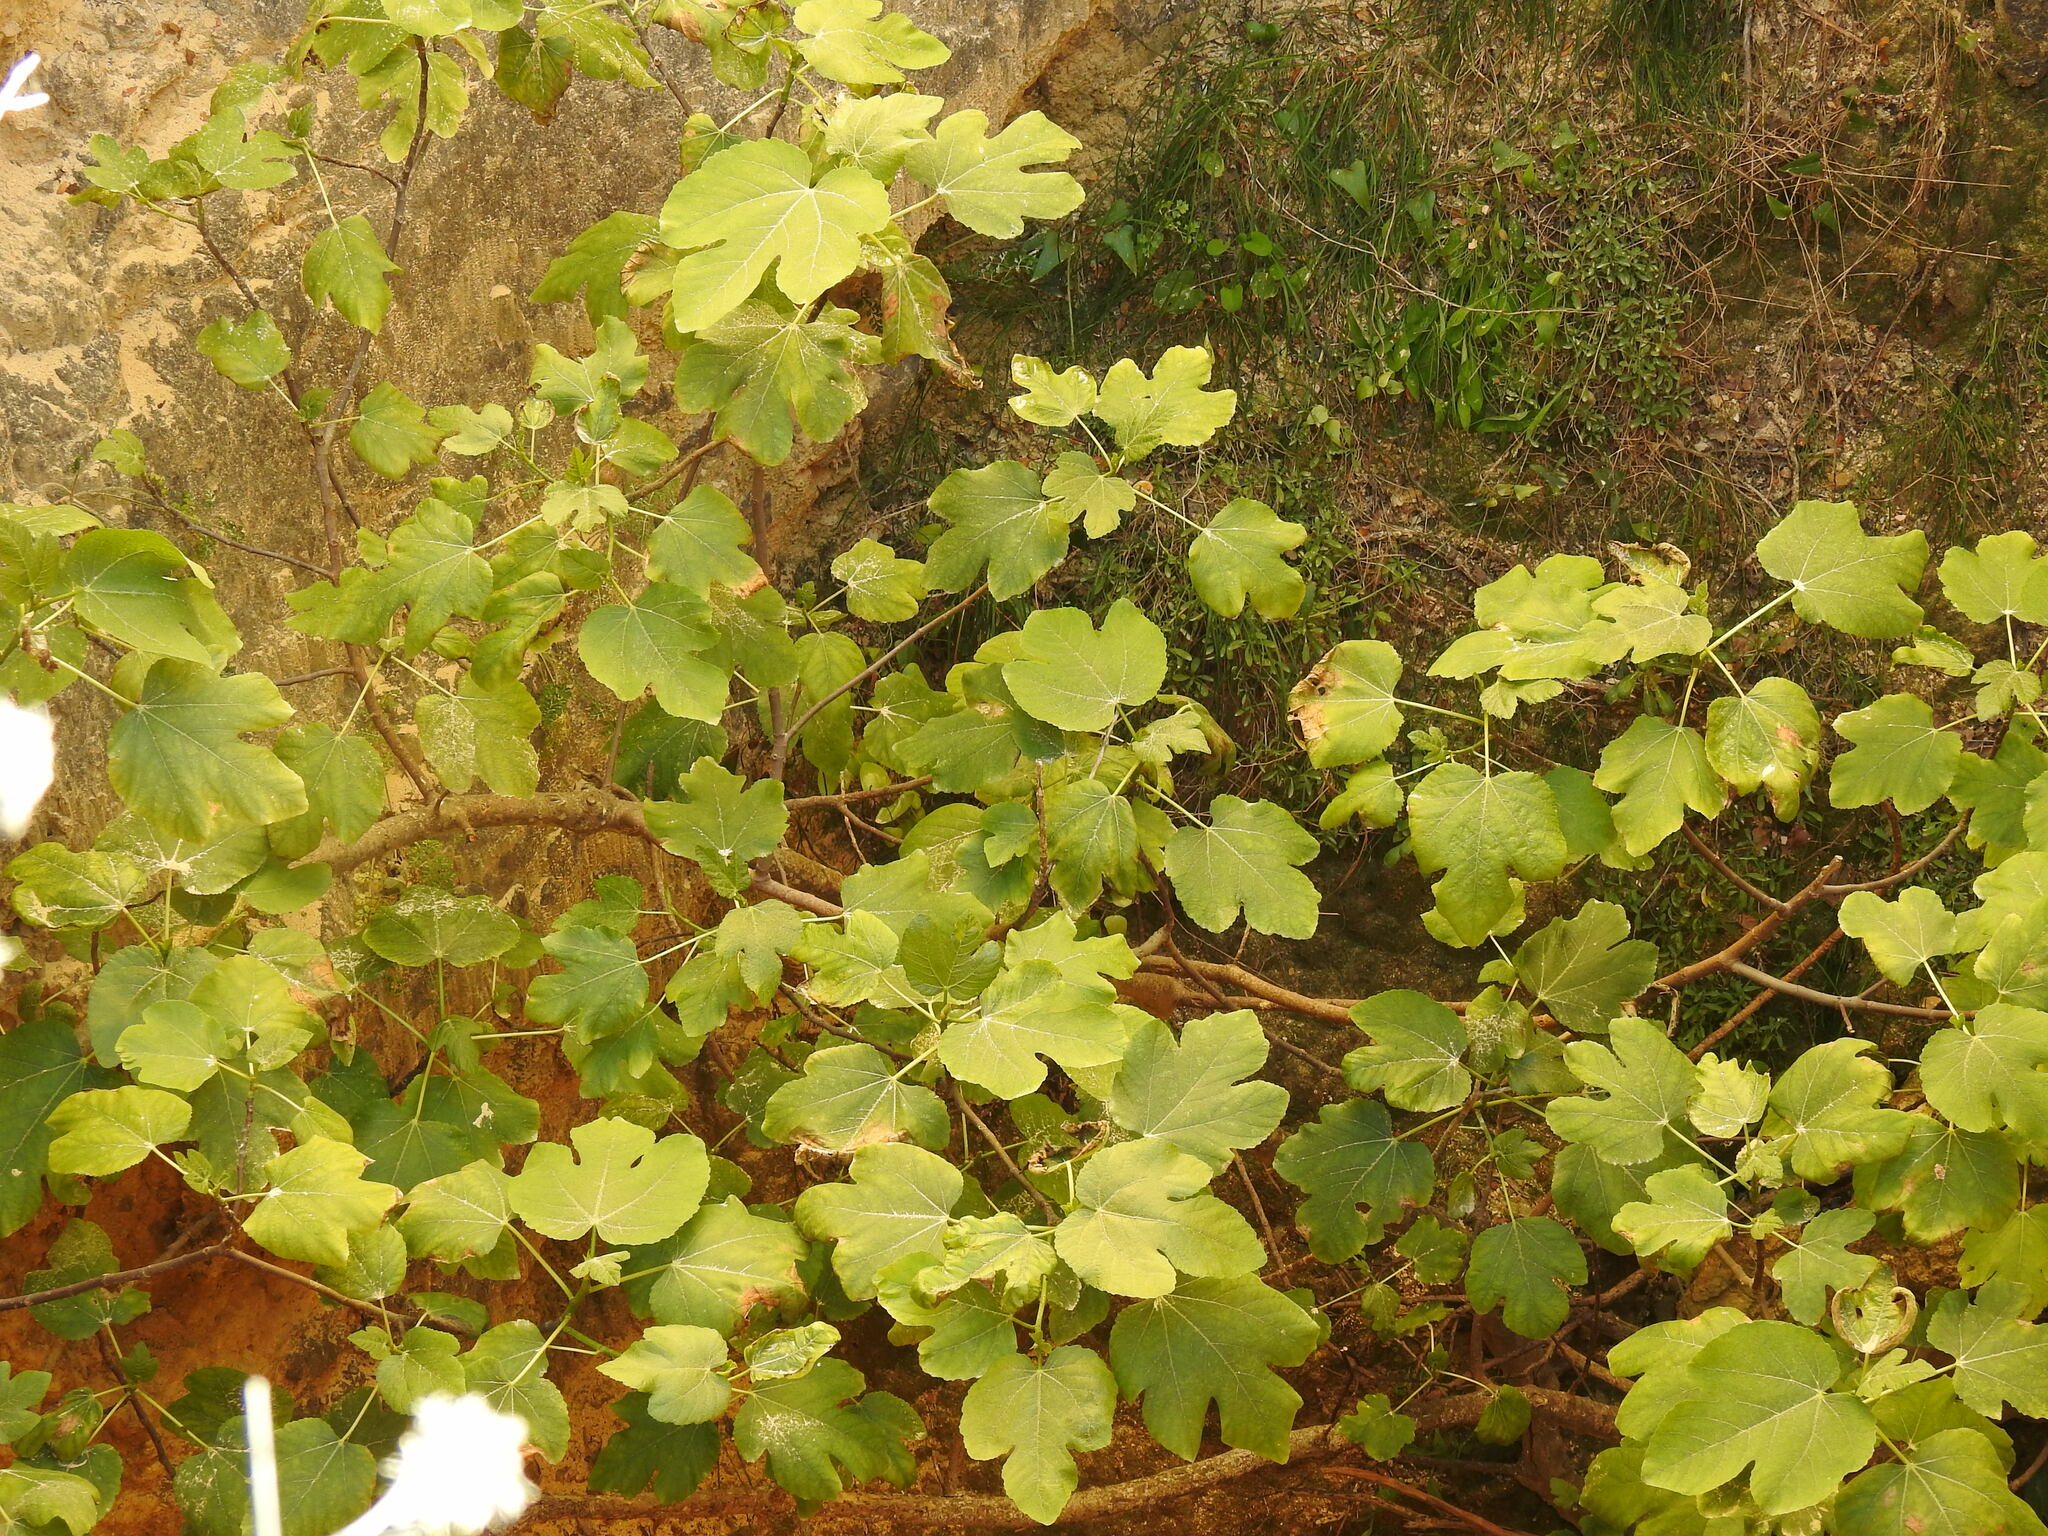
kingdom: Plantae
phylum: Tracheophyta
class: Magnoliopsida
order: Rosales
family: Moraceae
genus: Ficus
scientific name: Ficus carica
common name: Fig
